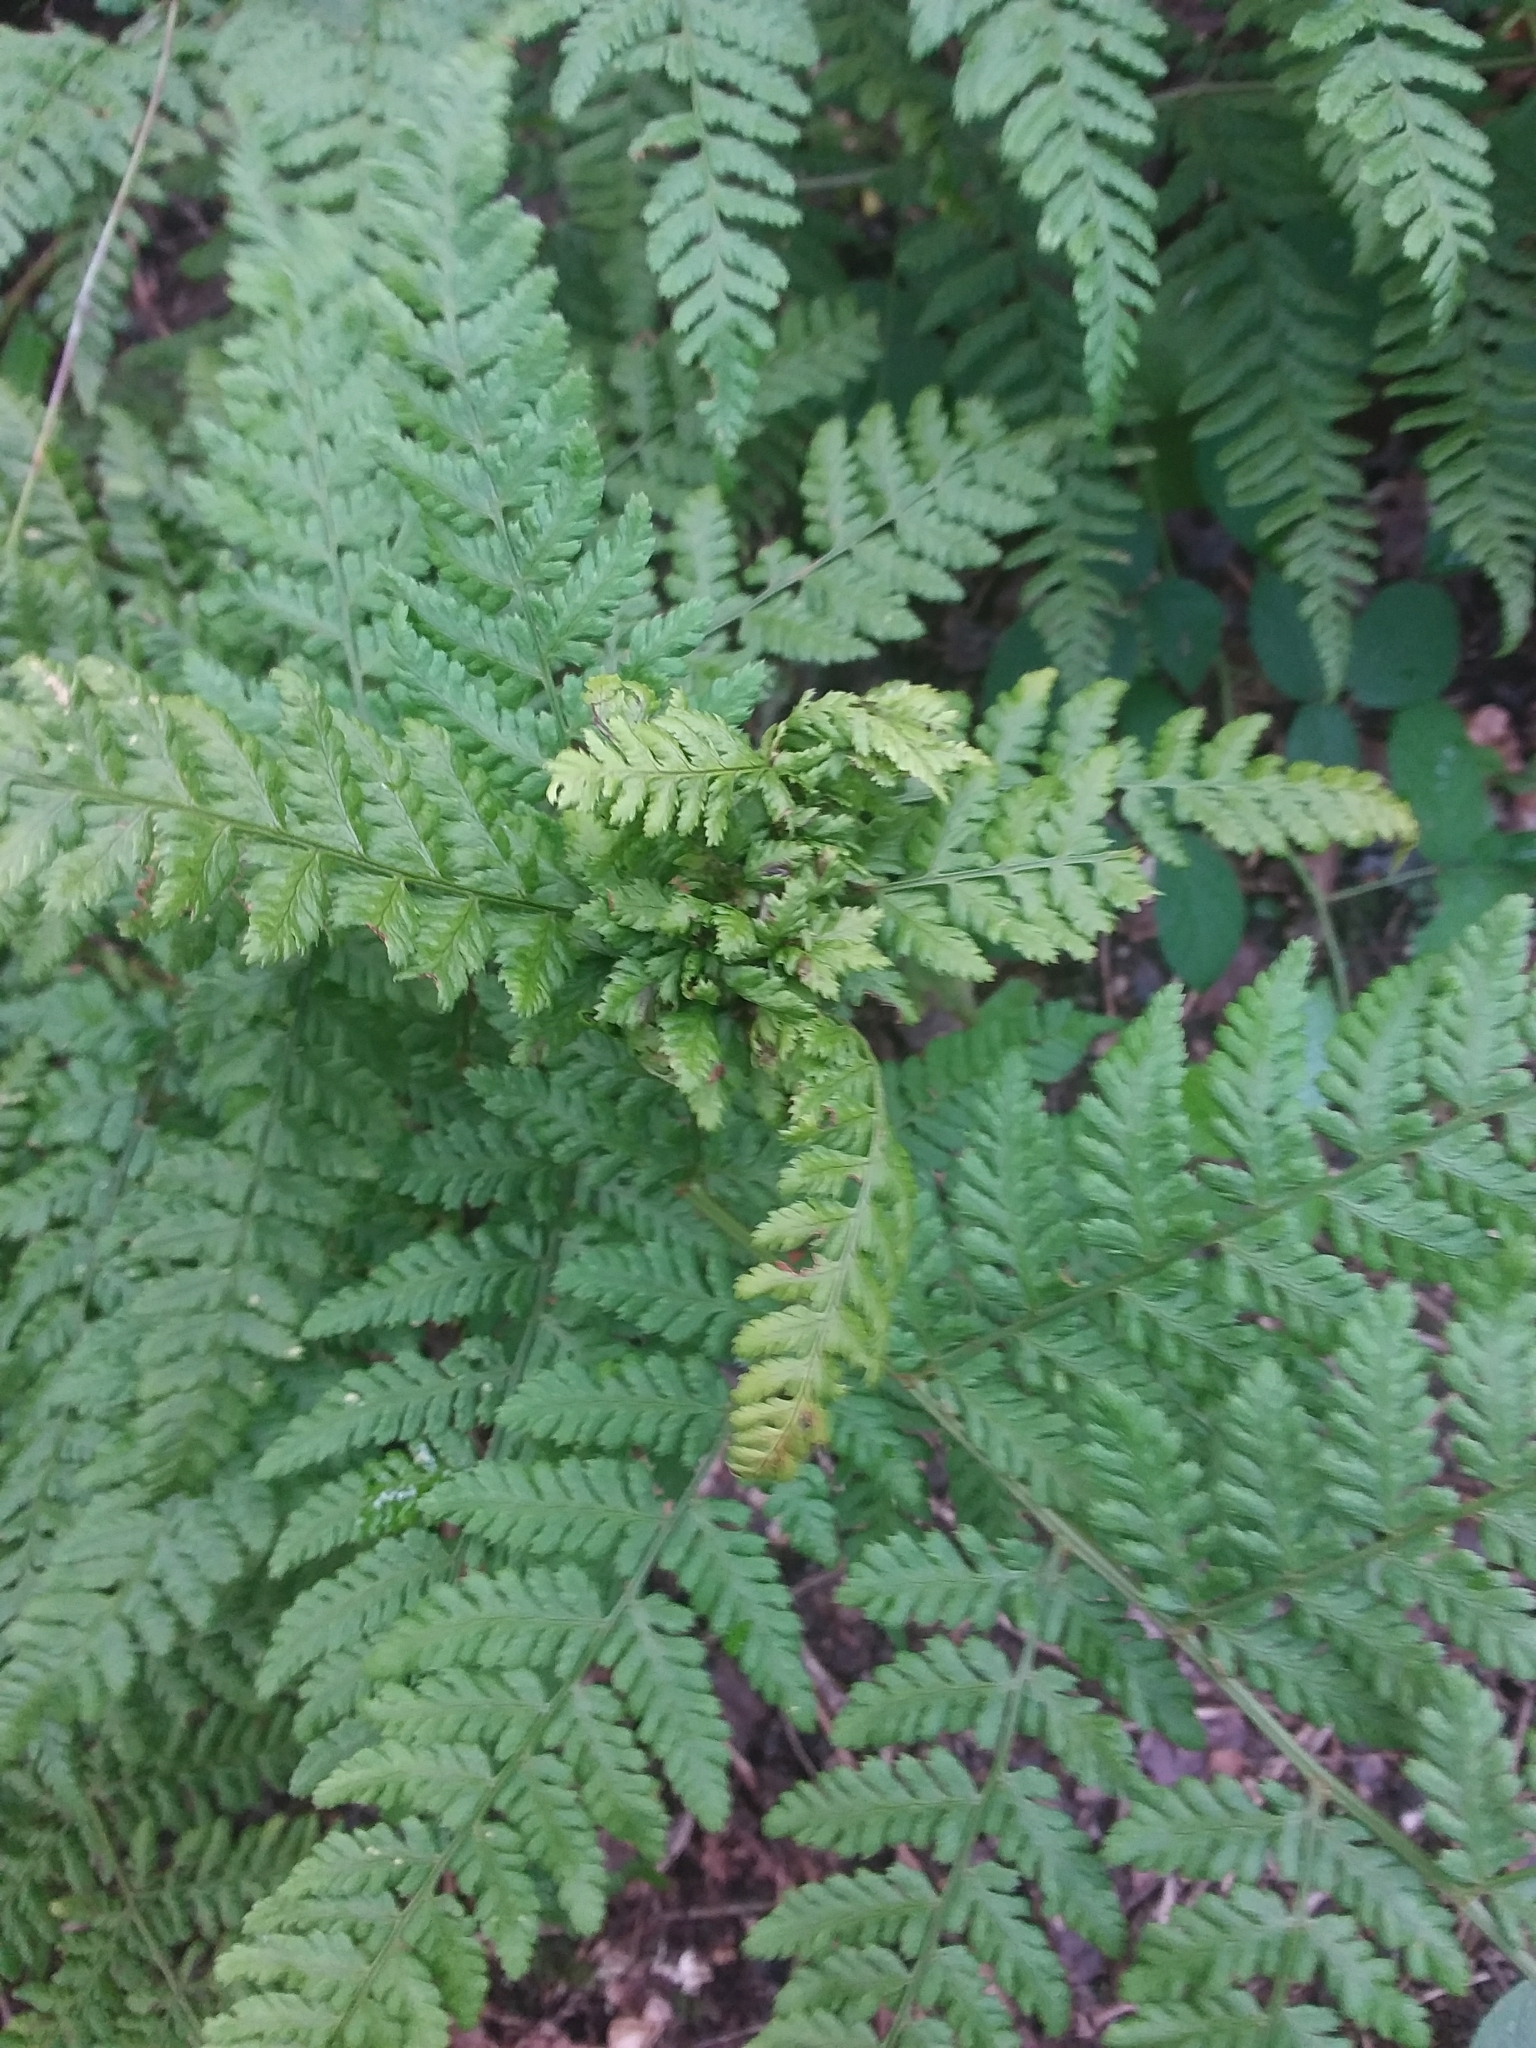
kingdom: Animalia
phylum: Arthropoda
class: Insecta
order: Diptera
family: Anthomyiidae
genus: Chirosia
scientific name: Chirosia betuleti
